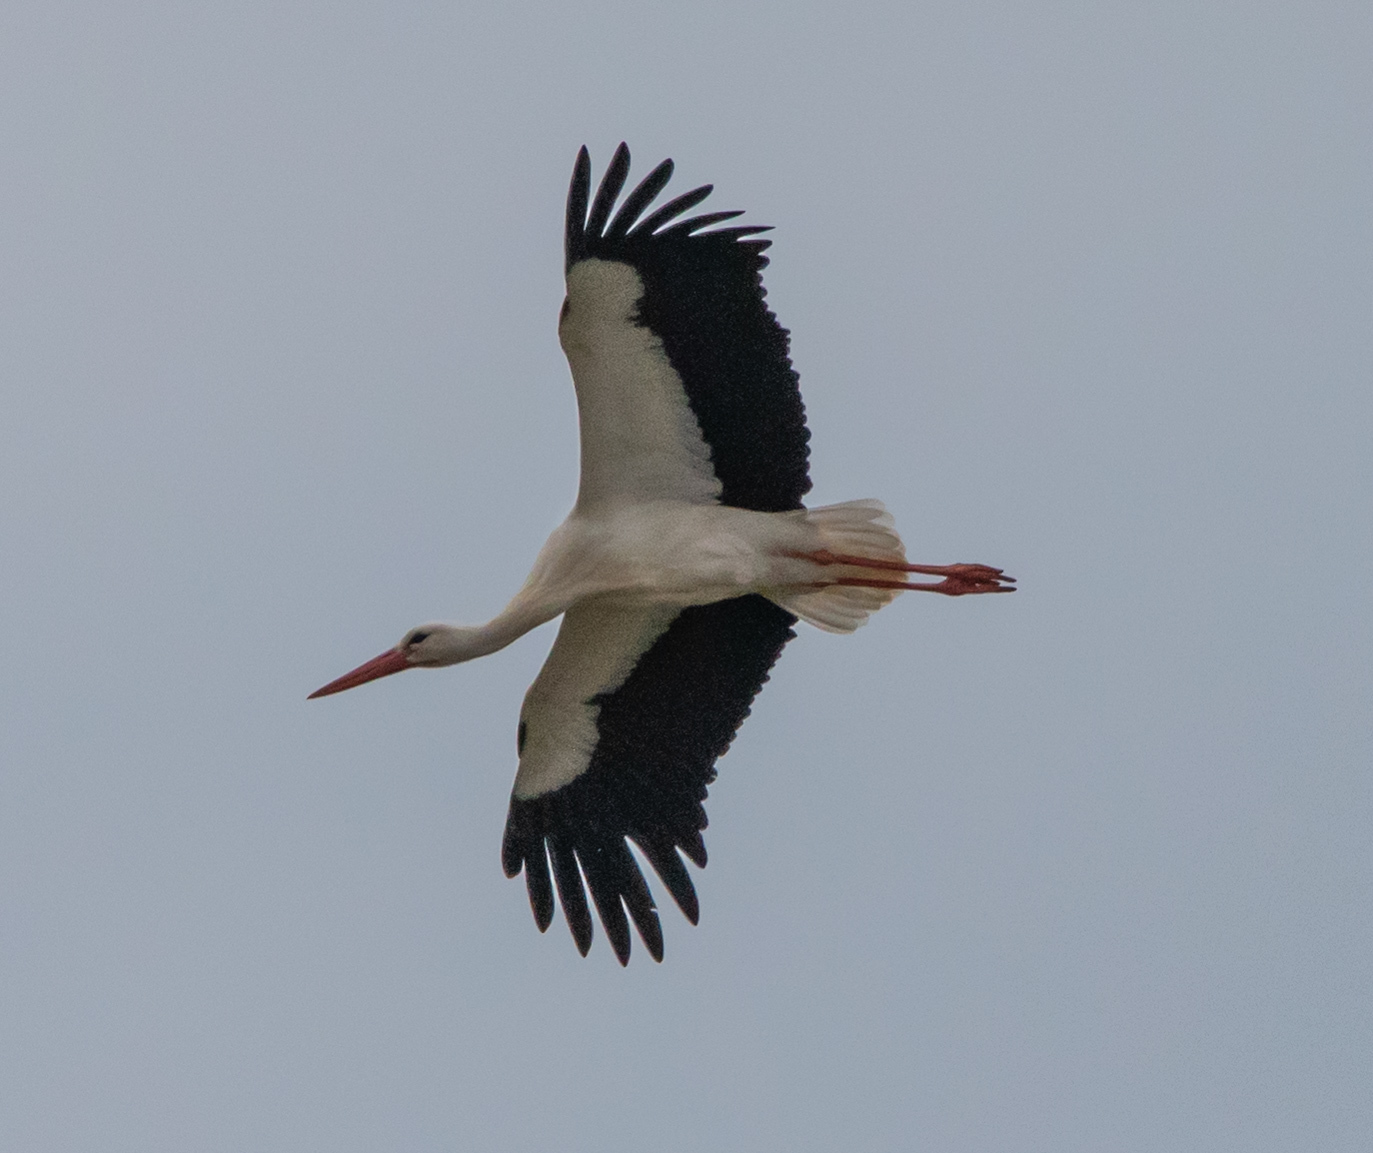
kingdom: Animalia
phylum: Chordata
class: Aves
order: Ciconiiformes
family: Ciconiidae
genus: Ciconia
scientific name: Ciconia ciconia
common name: White stork
